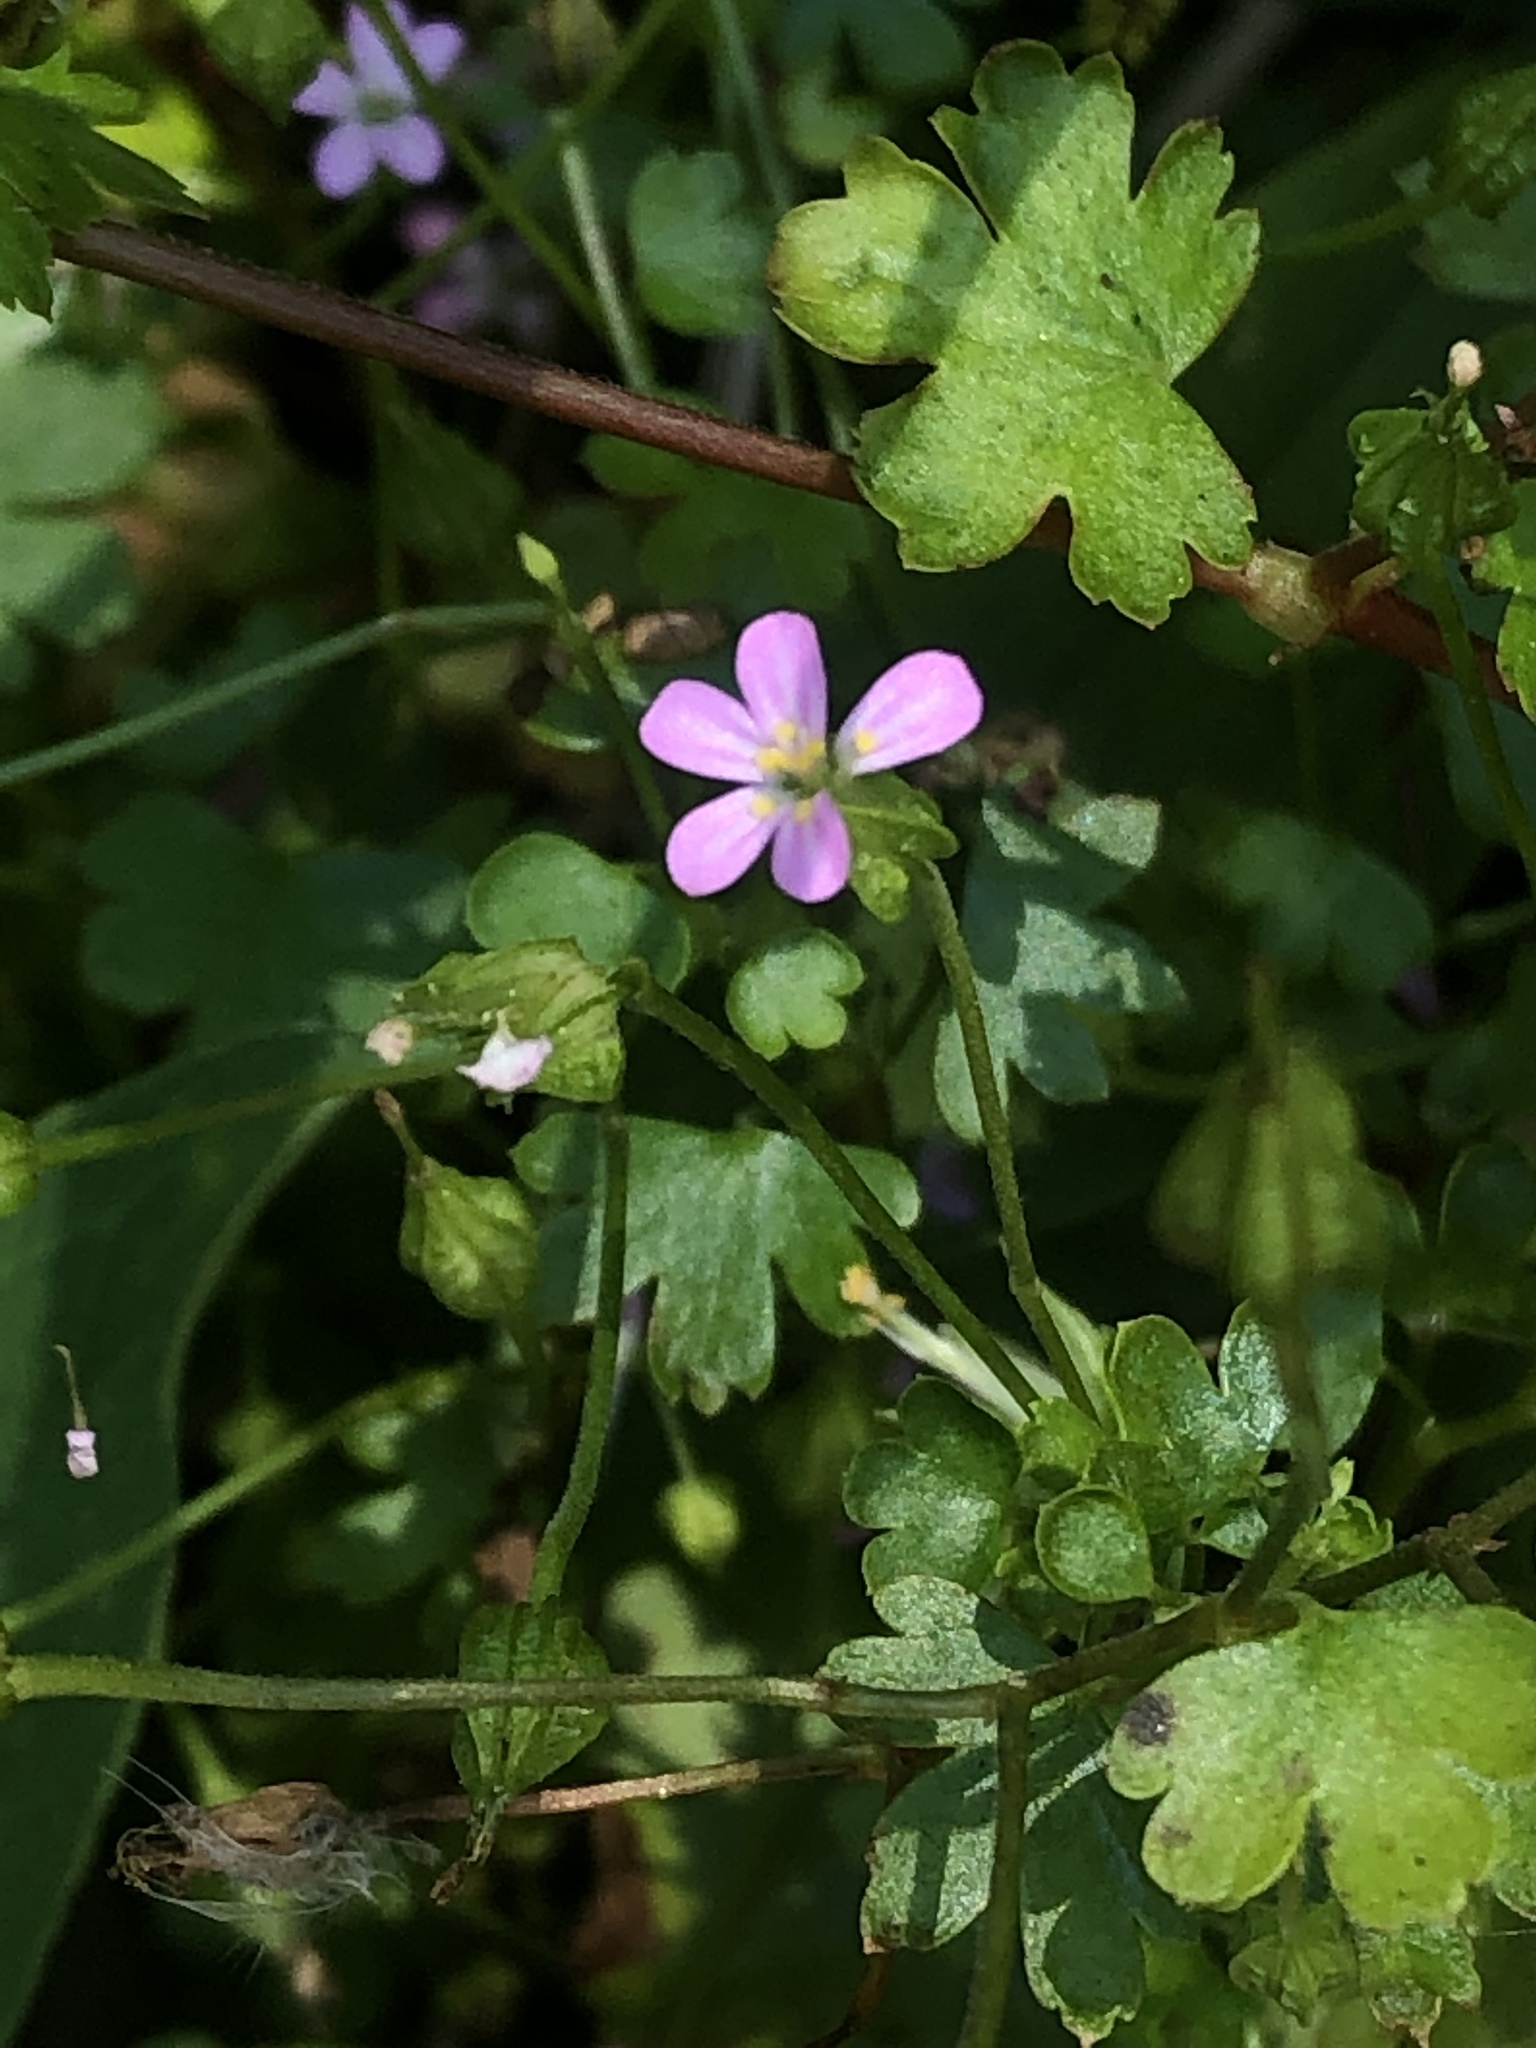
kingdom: Plantae
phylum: Tracheophyta
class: Magnoliopsida
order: Geraniales
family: Geraniaceae
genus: Geranium
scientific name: Geranium lucidum
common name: Shining crane's-bill
